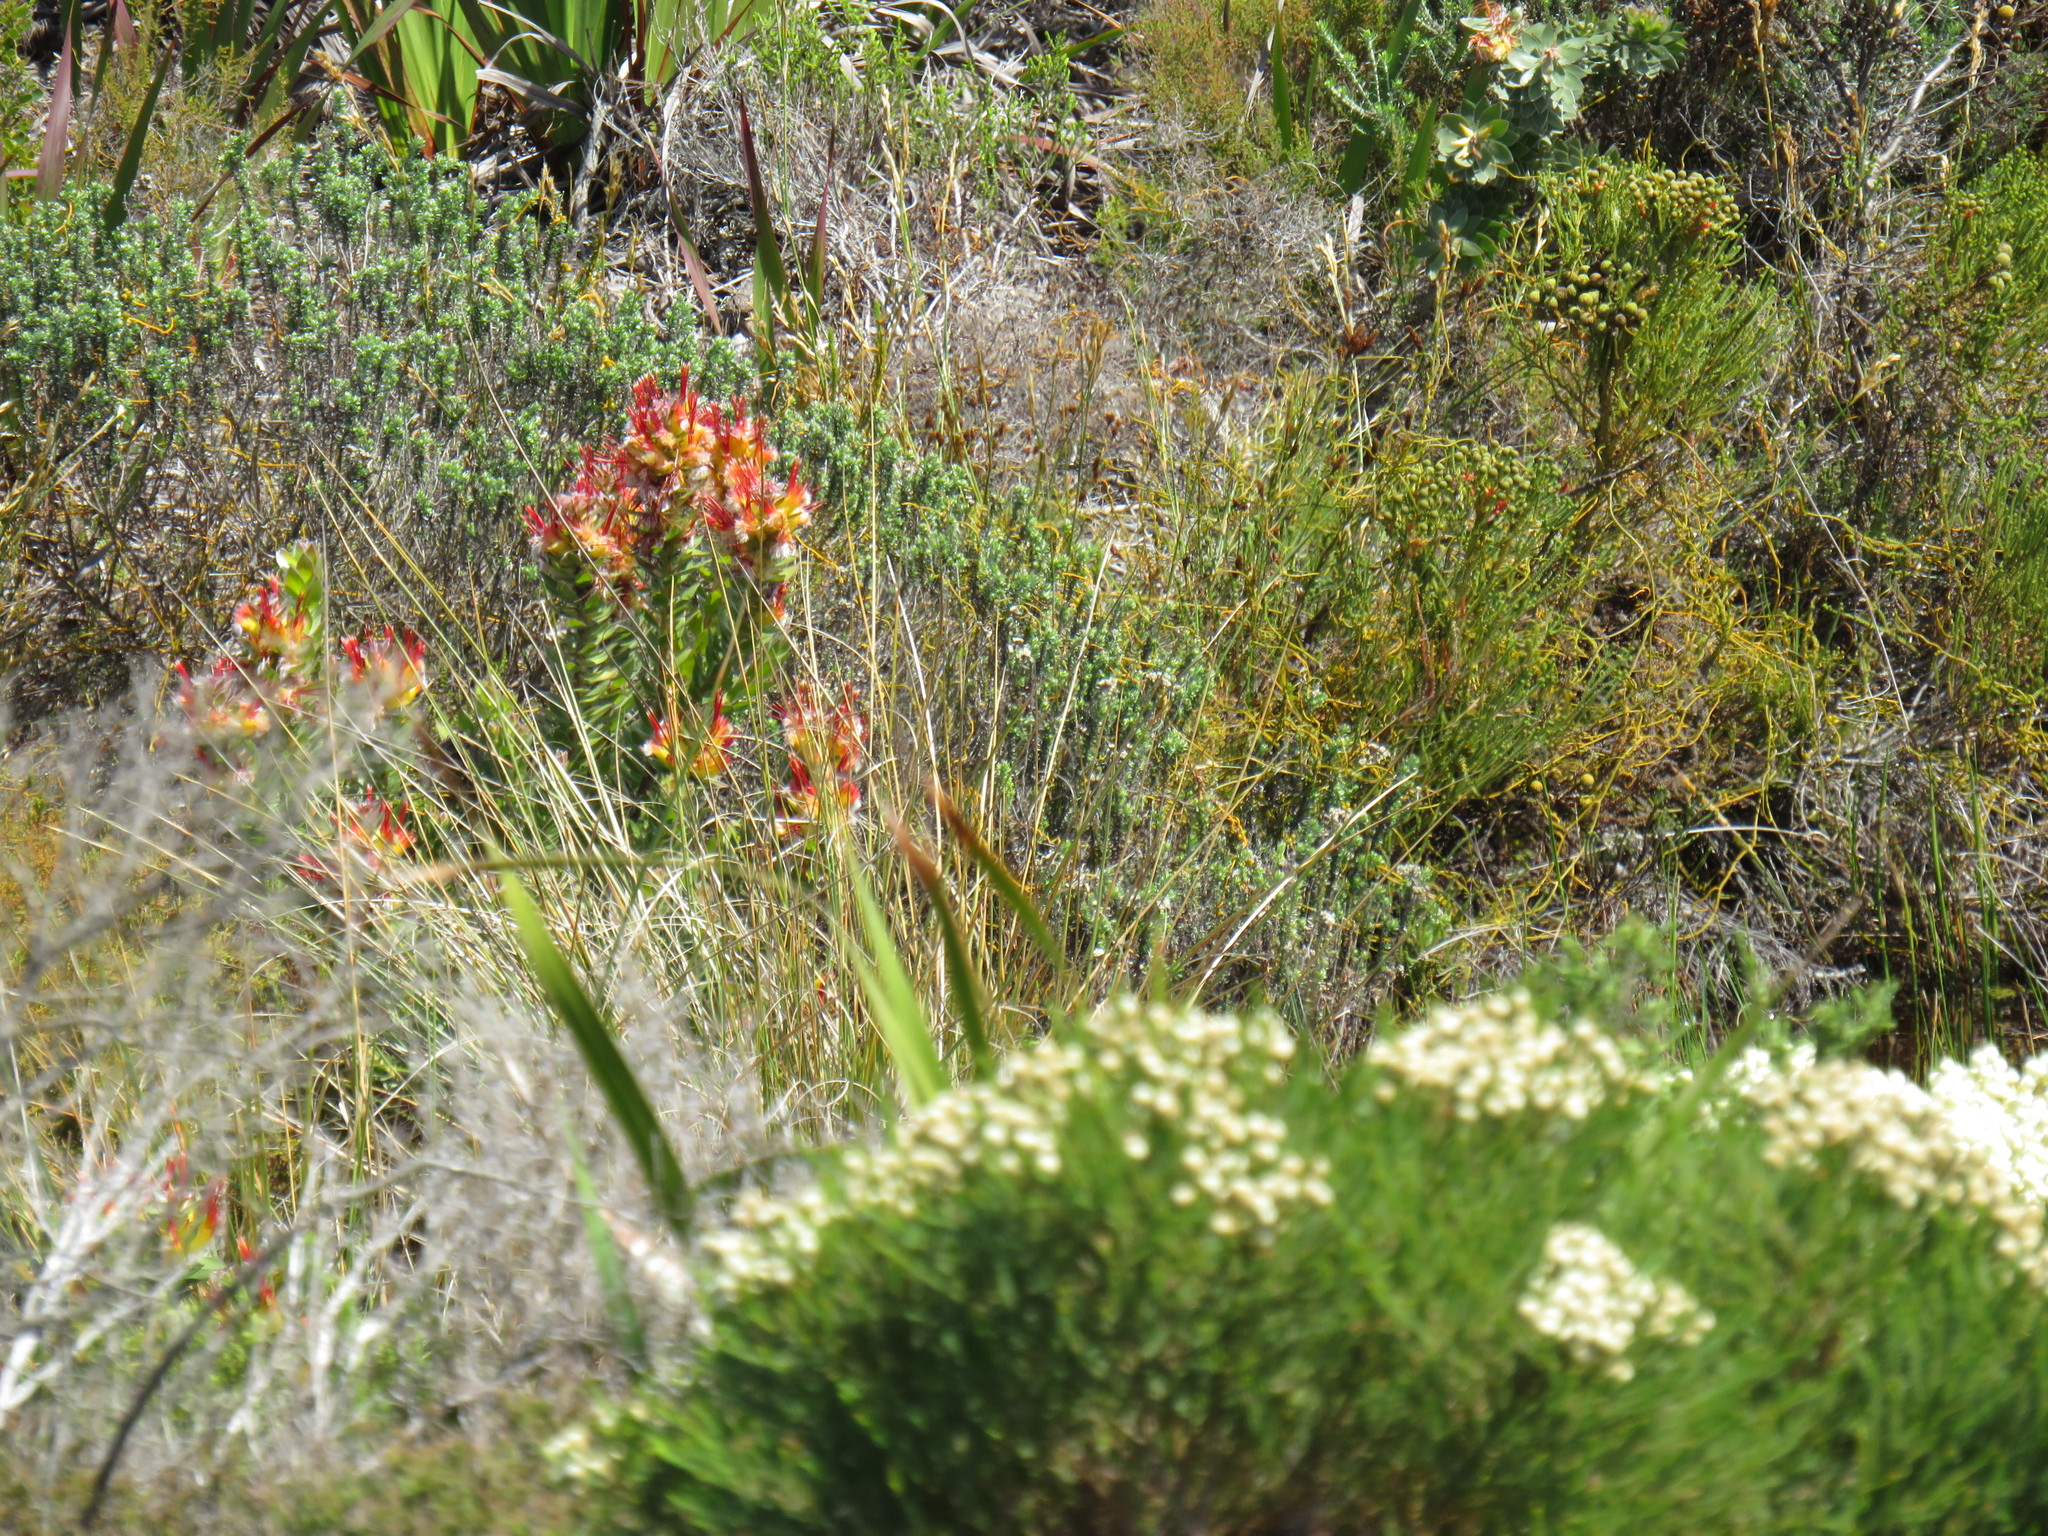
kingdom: Plantae
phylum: Tracheophyta
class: Magnoliopsida
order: Proteales
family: Proteaceae
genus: Mimetes
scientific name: Mimetes hirtus
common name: Marsh pagoda
